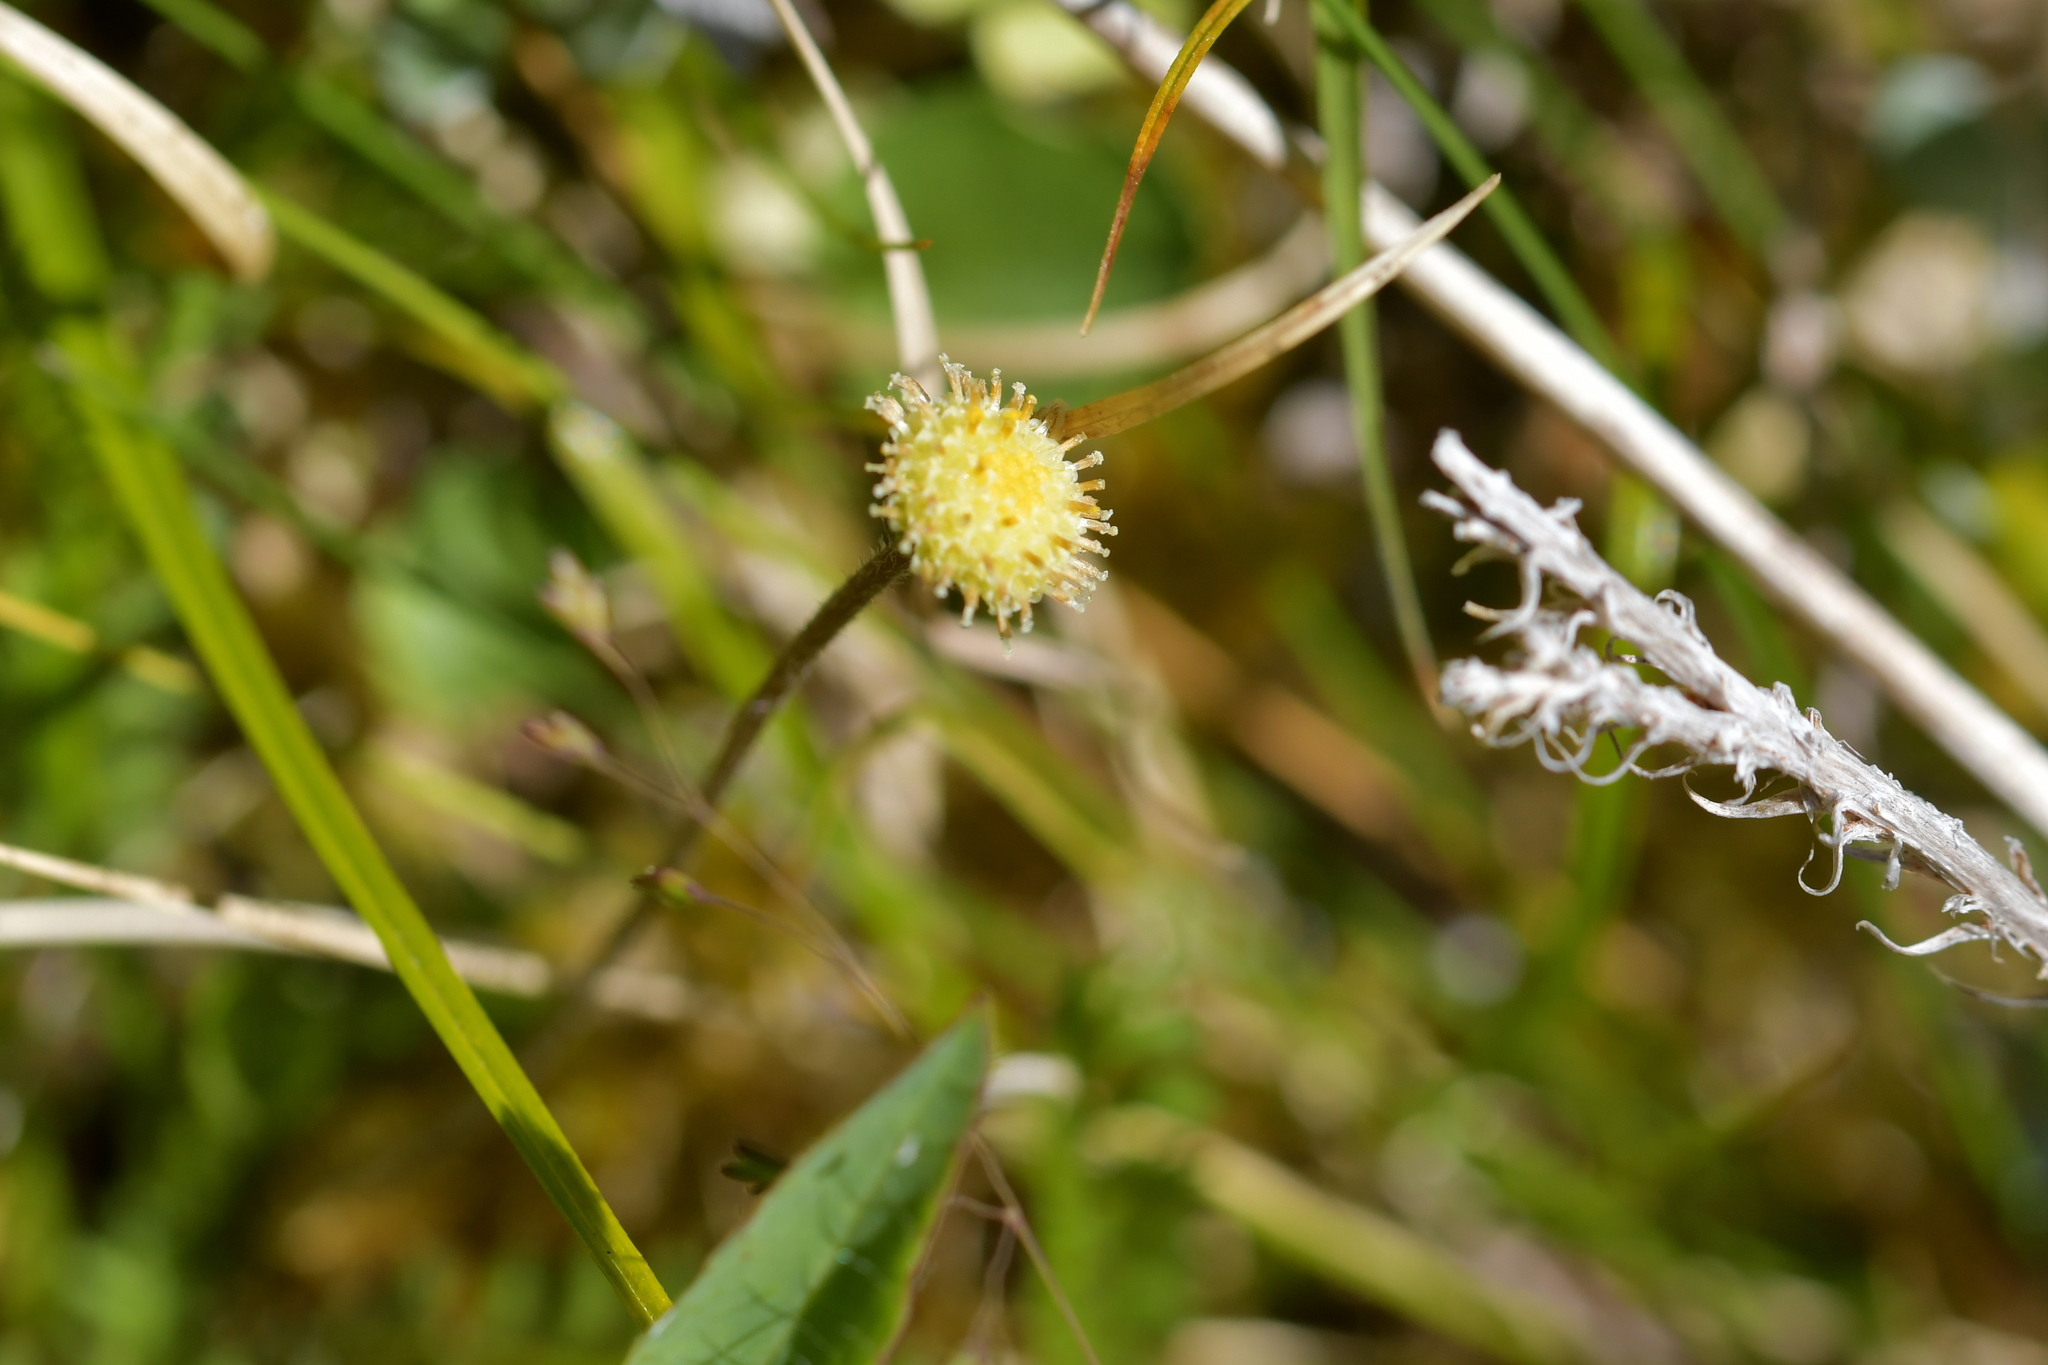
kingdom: Plantae
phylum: Tracheophyta
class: Magnoliopsida
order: Asterales
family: Asteraceae
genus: Leptinella
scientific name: Leptinella squalida
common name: New zealand brass-buttons
